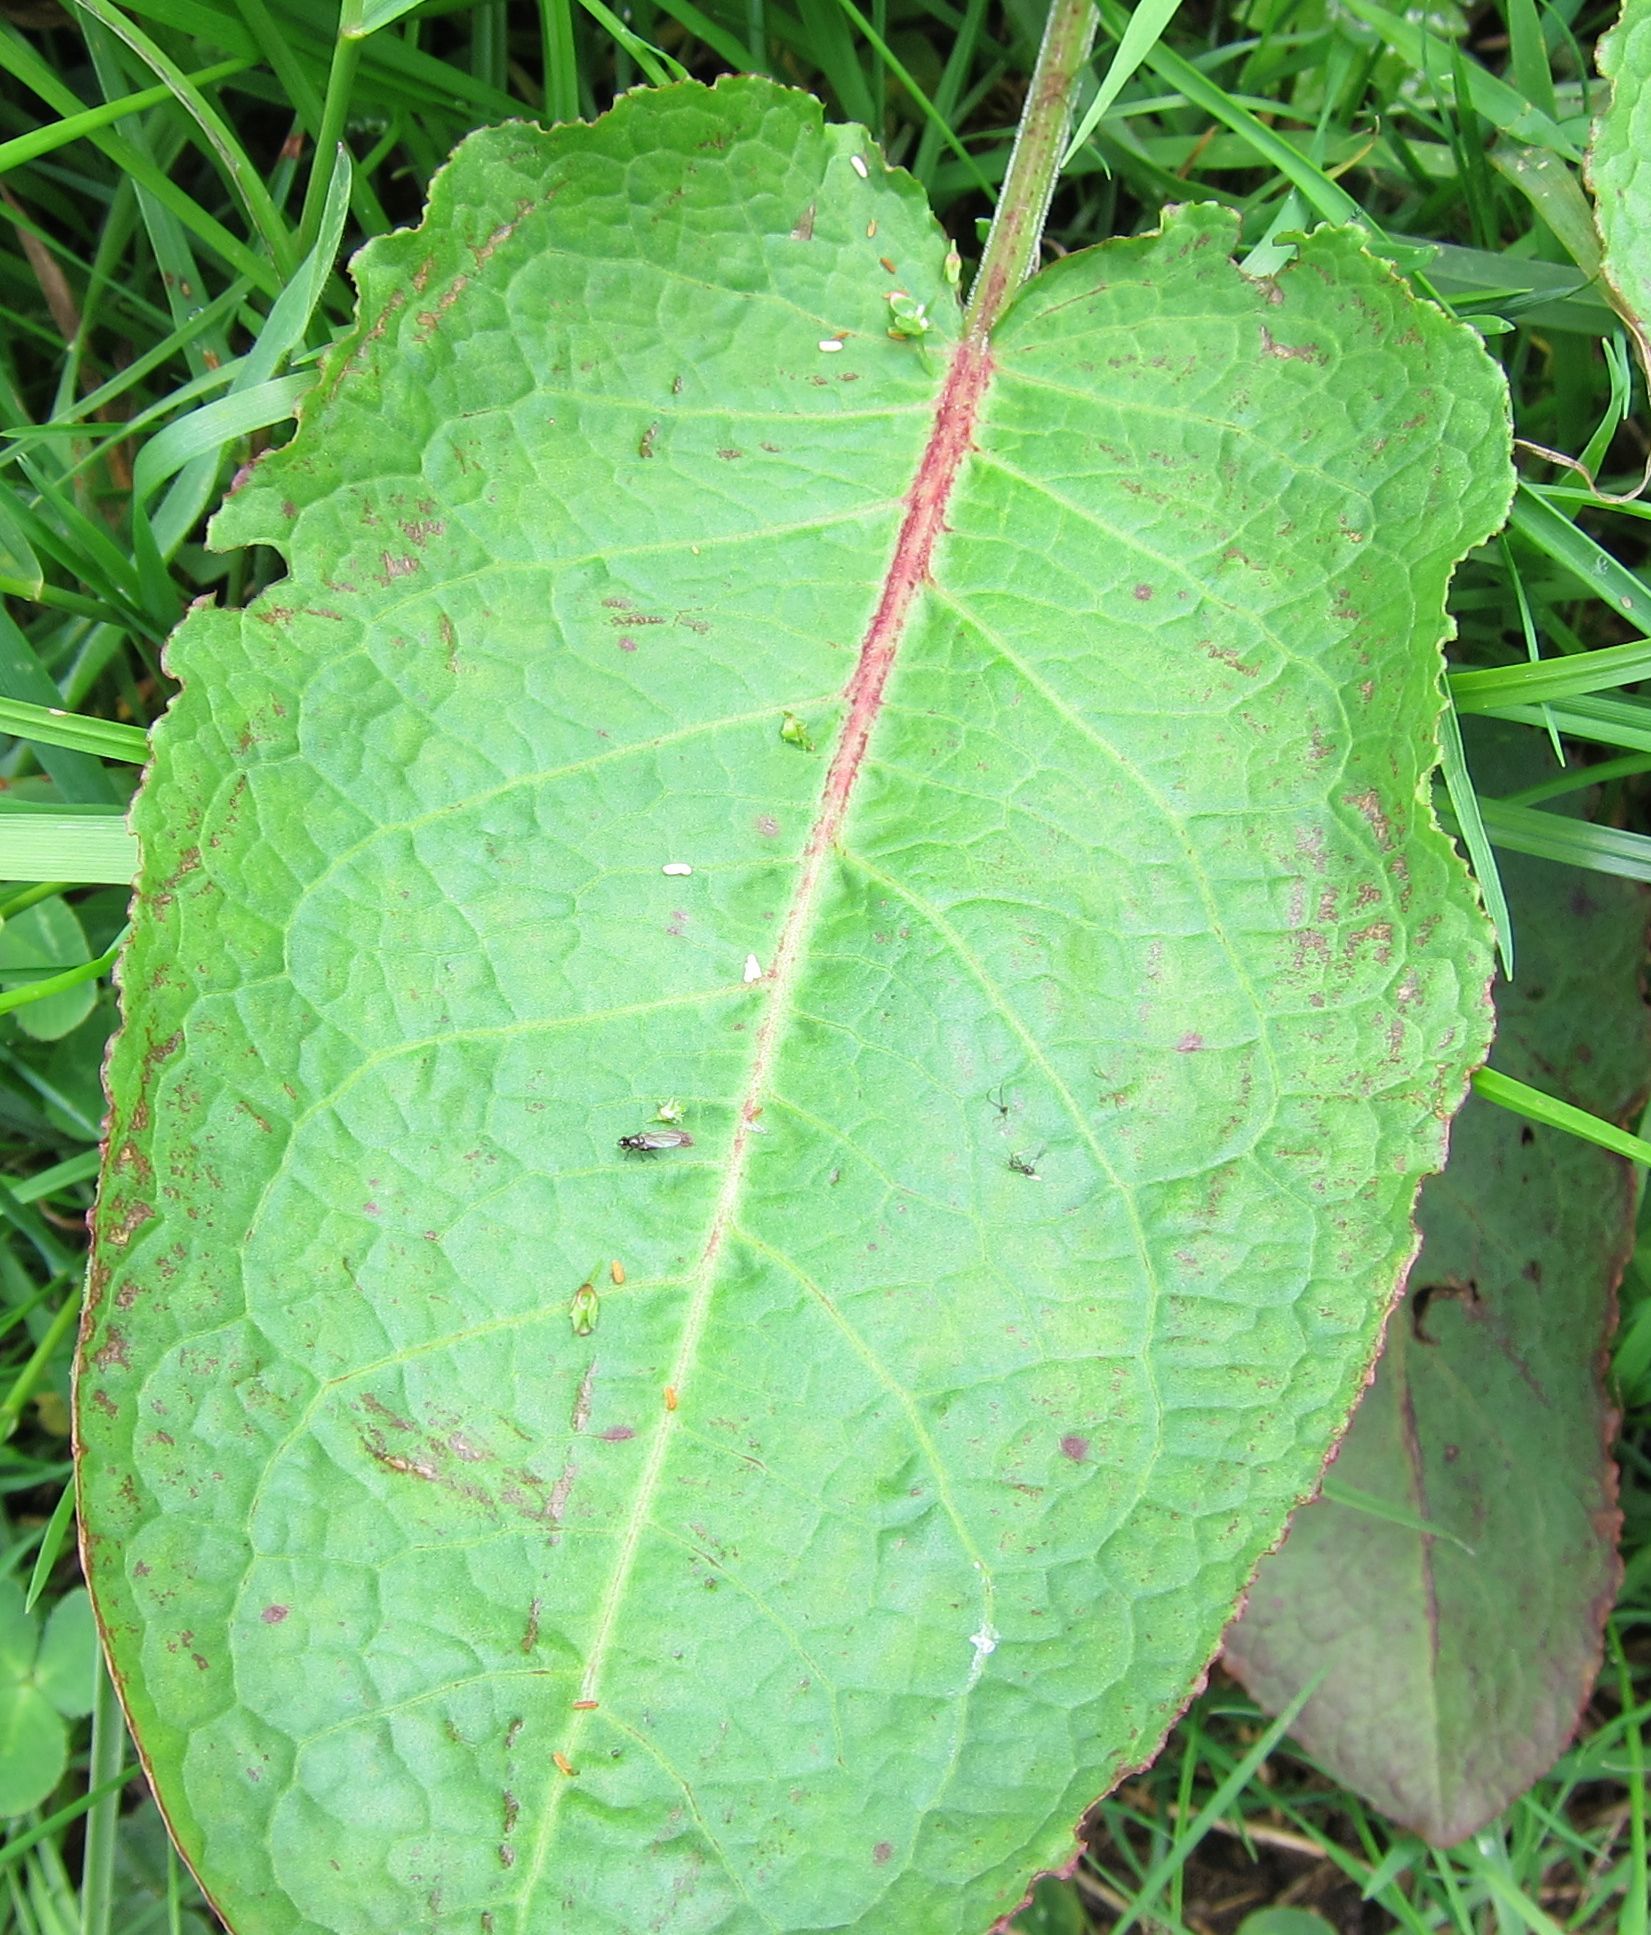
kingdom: Plantae
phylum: Tracheophyta
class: Magnoliopsida
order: Caryophyllales
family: Polygonaceae
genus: Rumex
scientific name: Rumex obtusifolius
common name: Bitter dock
